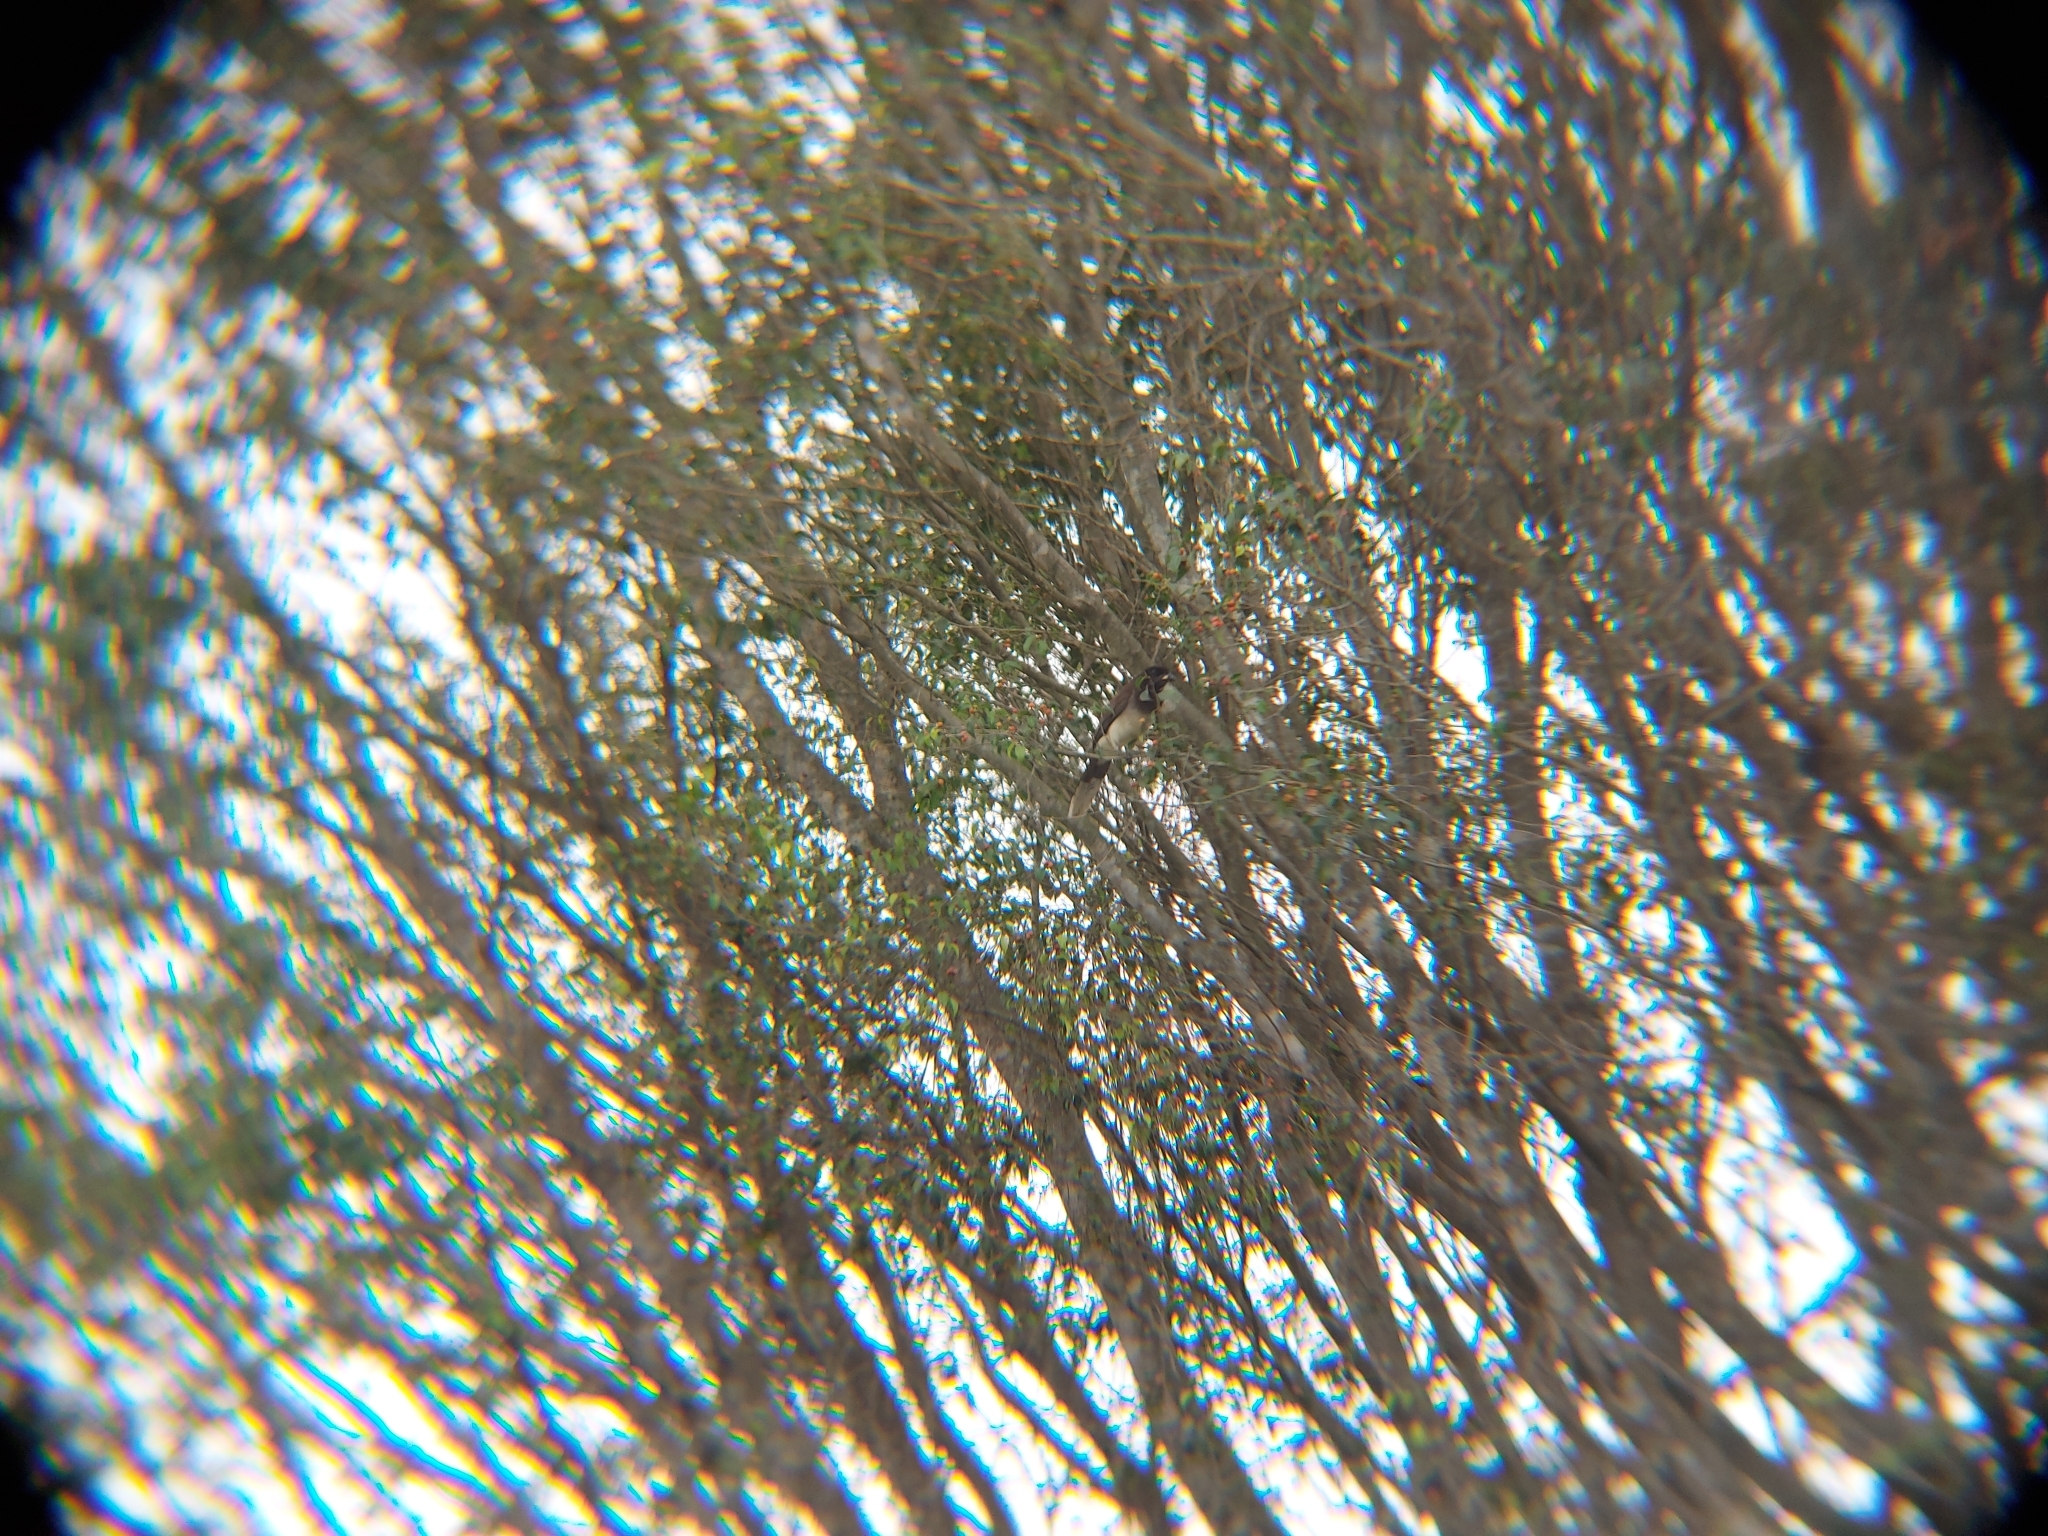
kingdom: Animalia
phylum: Chordata
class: Aves
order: Passeriformes
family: Corvidae
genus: Psilorhinus
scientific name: Psilorhinus morio
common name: Brown jay
